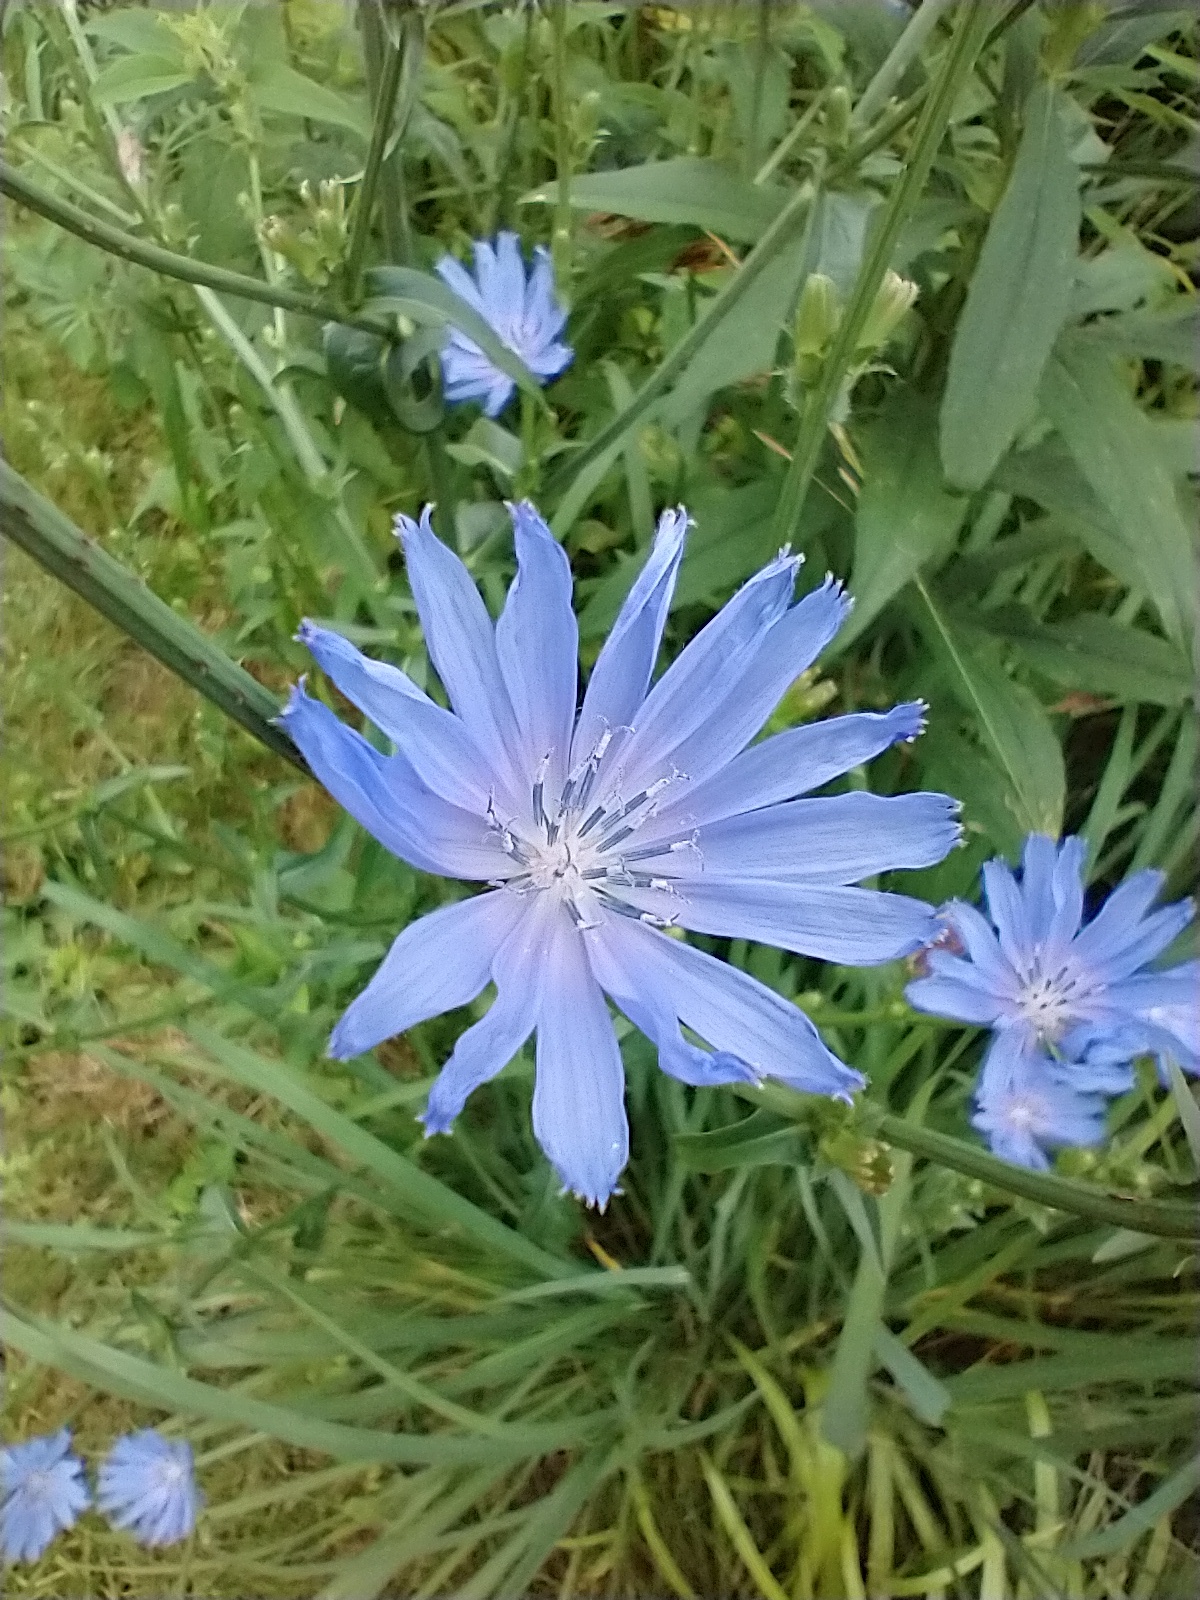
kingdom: Plantae
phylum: Tracheophyta
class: Magnoliopsida
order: Asterales
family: Asteraceae
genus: Cichorium
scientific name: Cichorium intybus
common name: Chicory
